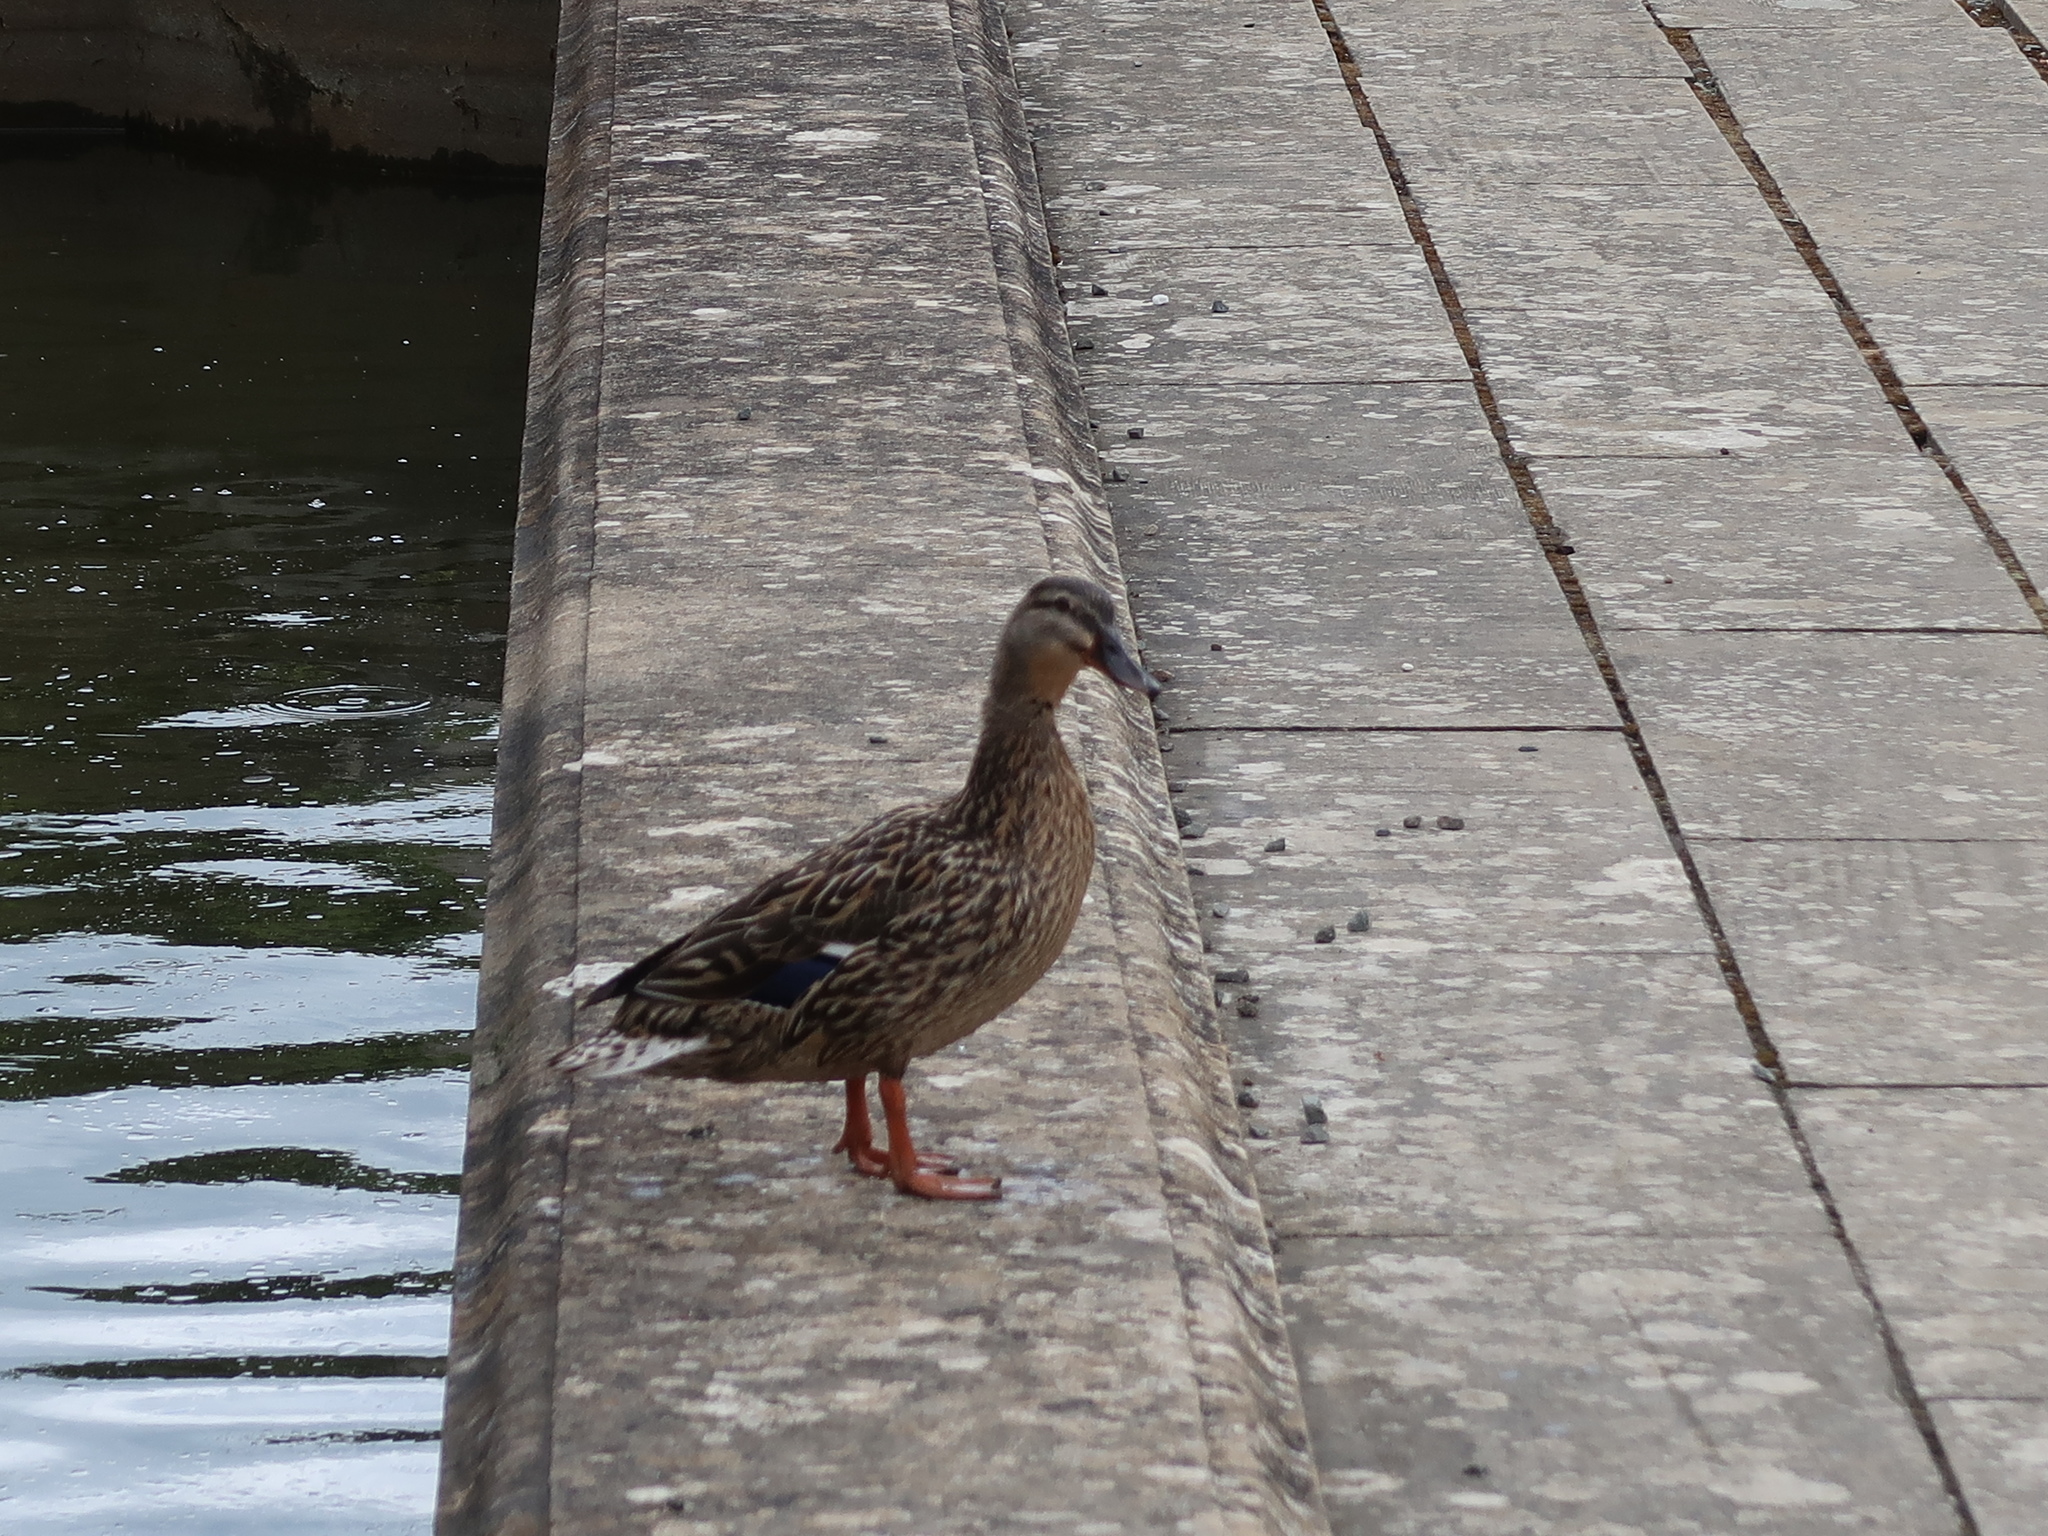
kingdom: Animalia
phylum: Chordata
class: Aves
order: Anseriformes
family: Anatidae
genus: Anas
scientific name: Anas platyrhynchos
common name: Mallard
